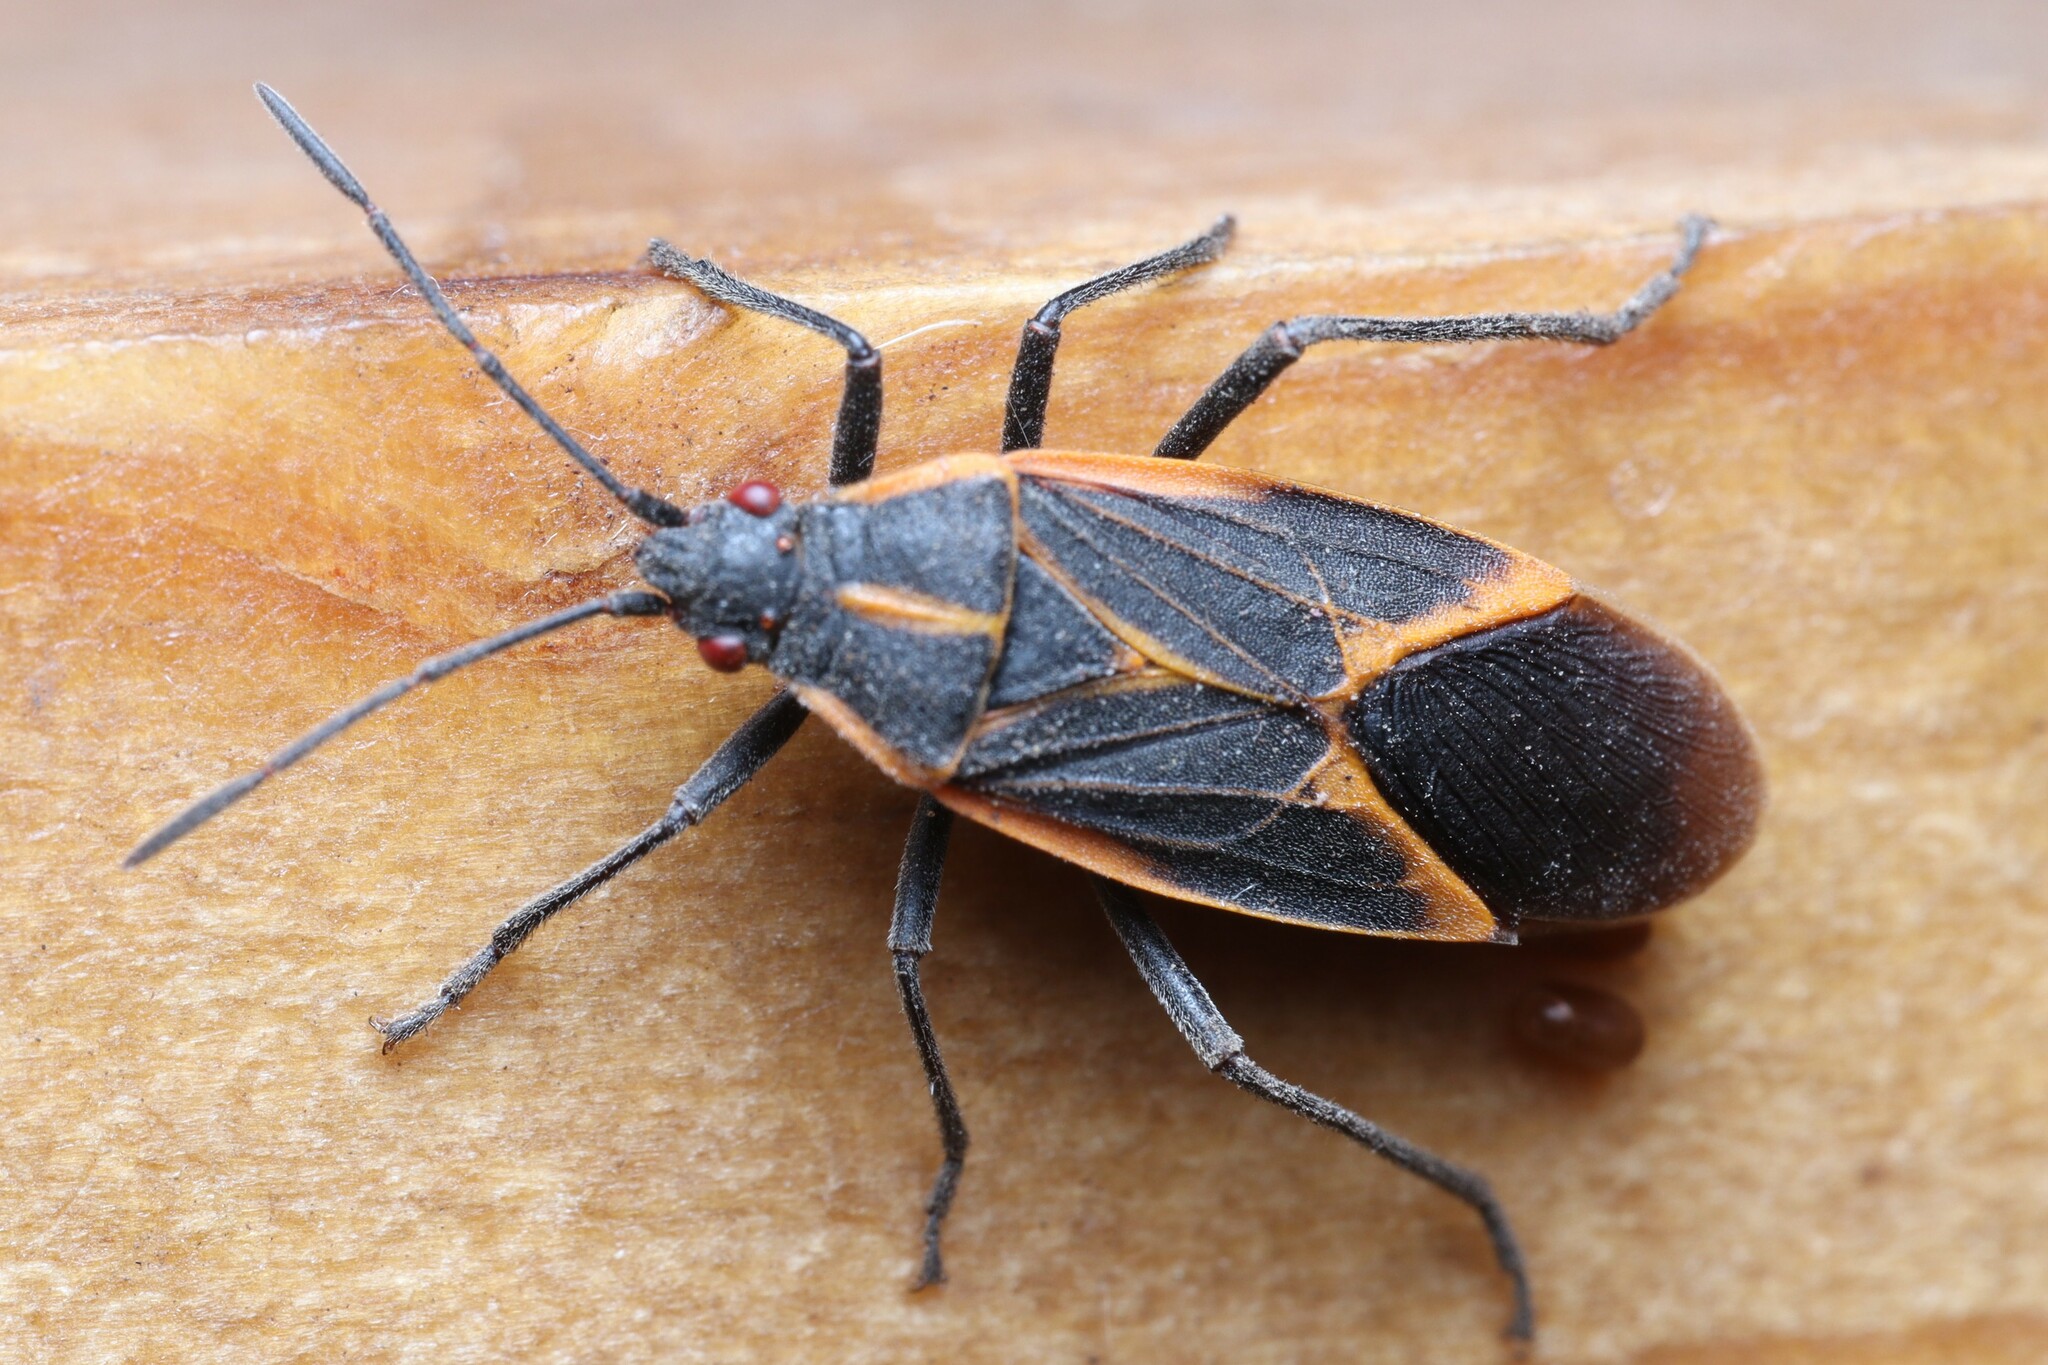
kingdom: Animalia
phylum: Arthropoda
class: Insecta
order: Hemiptera
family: Rhopalidae
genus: Boisea
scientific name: Boisea trivittata
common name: Boxelder bug
